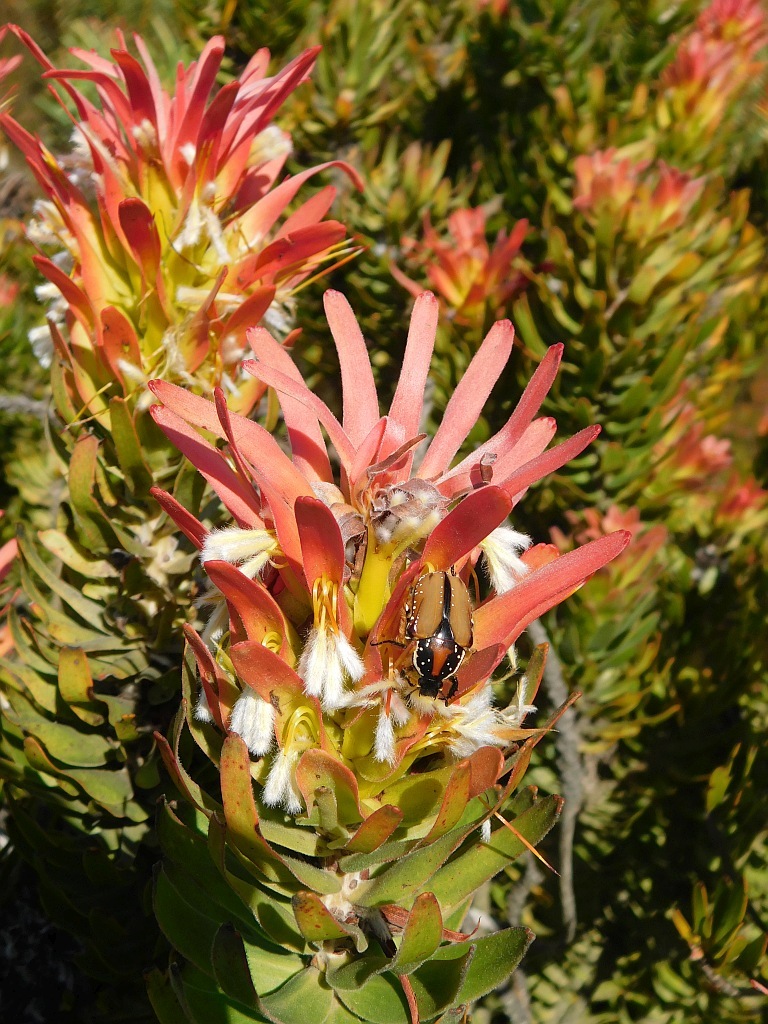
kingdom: Animalia
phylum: Arthropoda
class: Insecta
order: Coleoptera
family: Scarabaeidae
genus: Trichostetha
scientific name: Trichostetha signata
